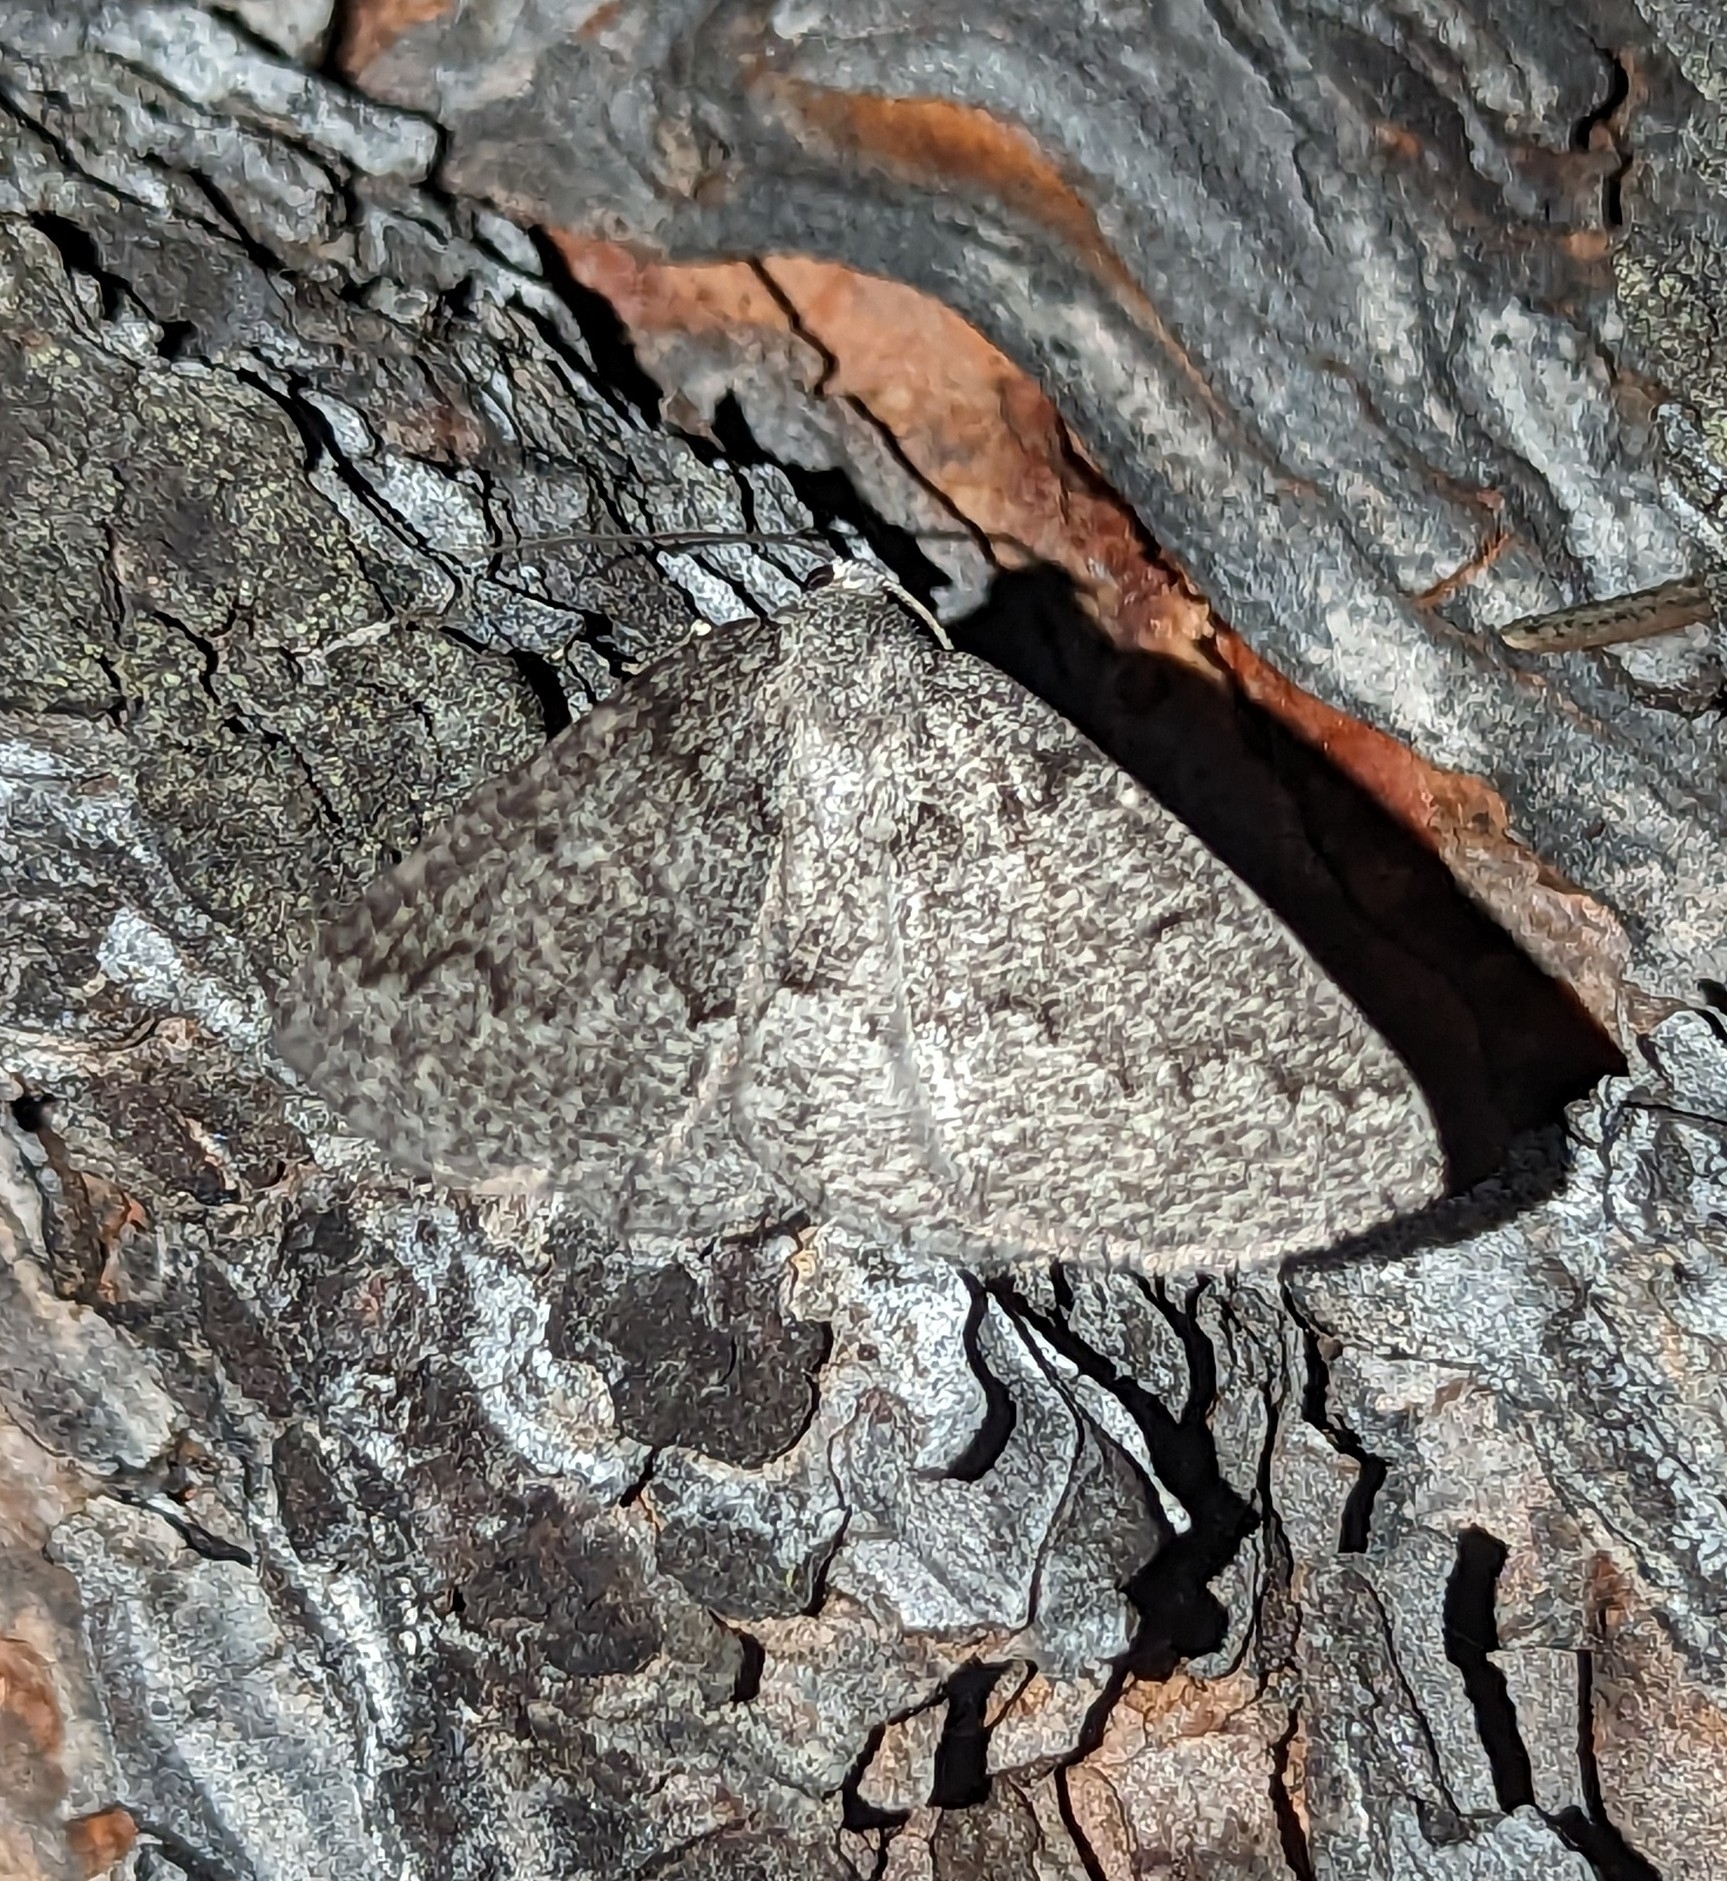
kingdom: Animalia
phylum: Arthropoda
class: Insecta
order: Lepidoptera
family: Geometridae
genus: Sabulodes
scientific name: Sabulodes
